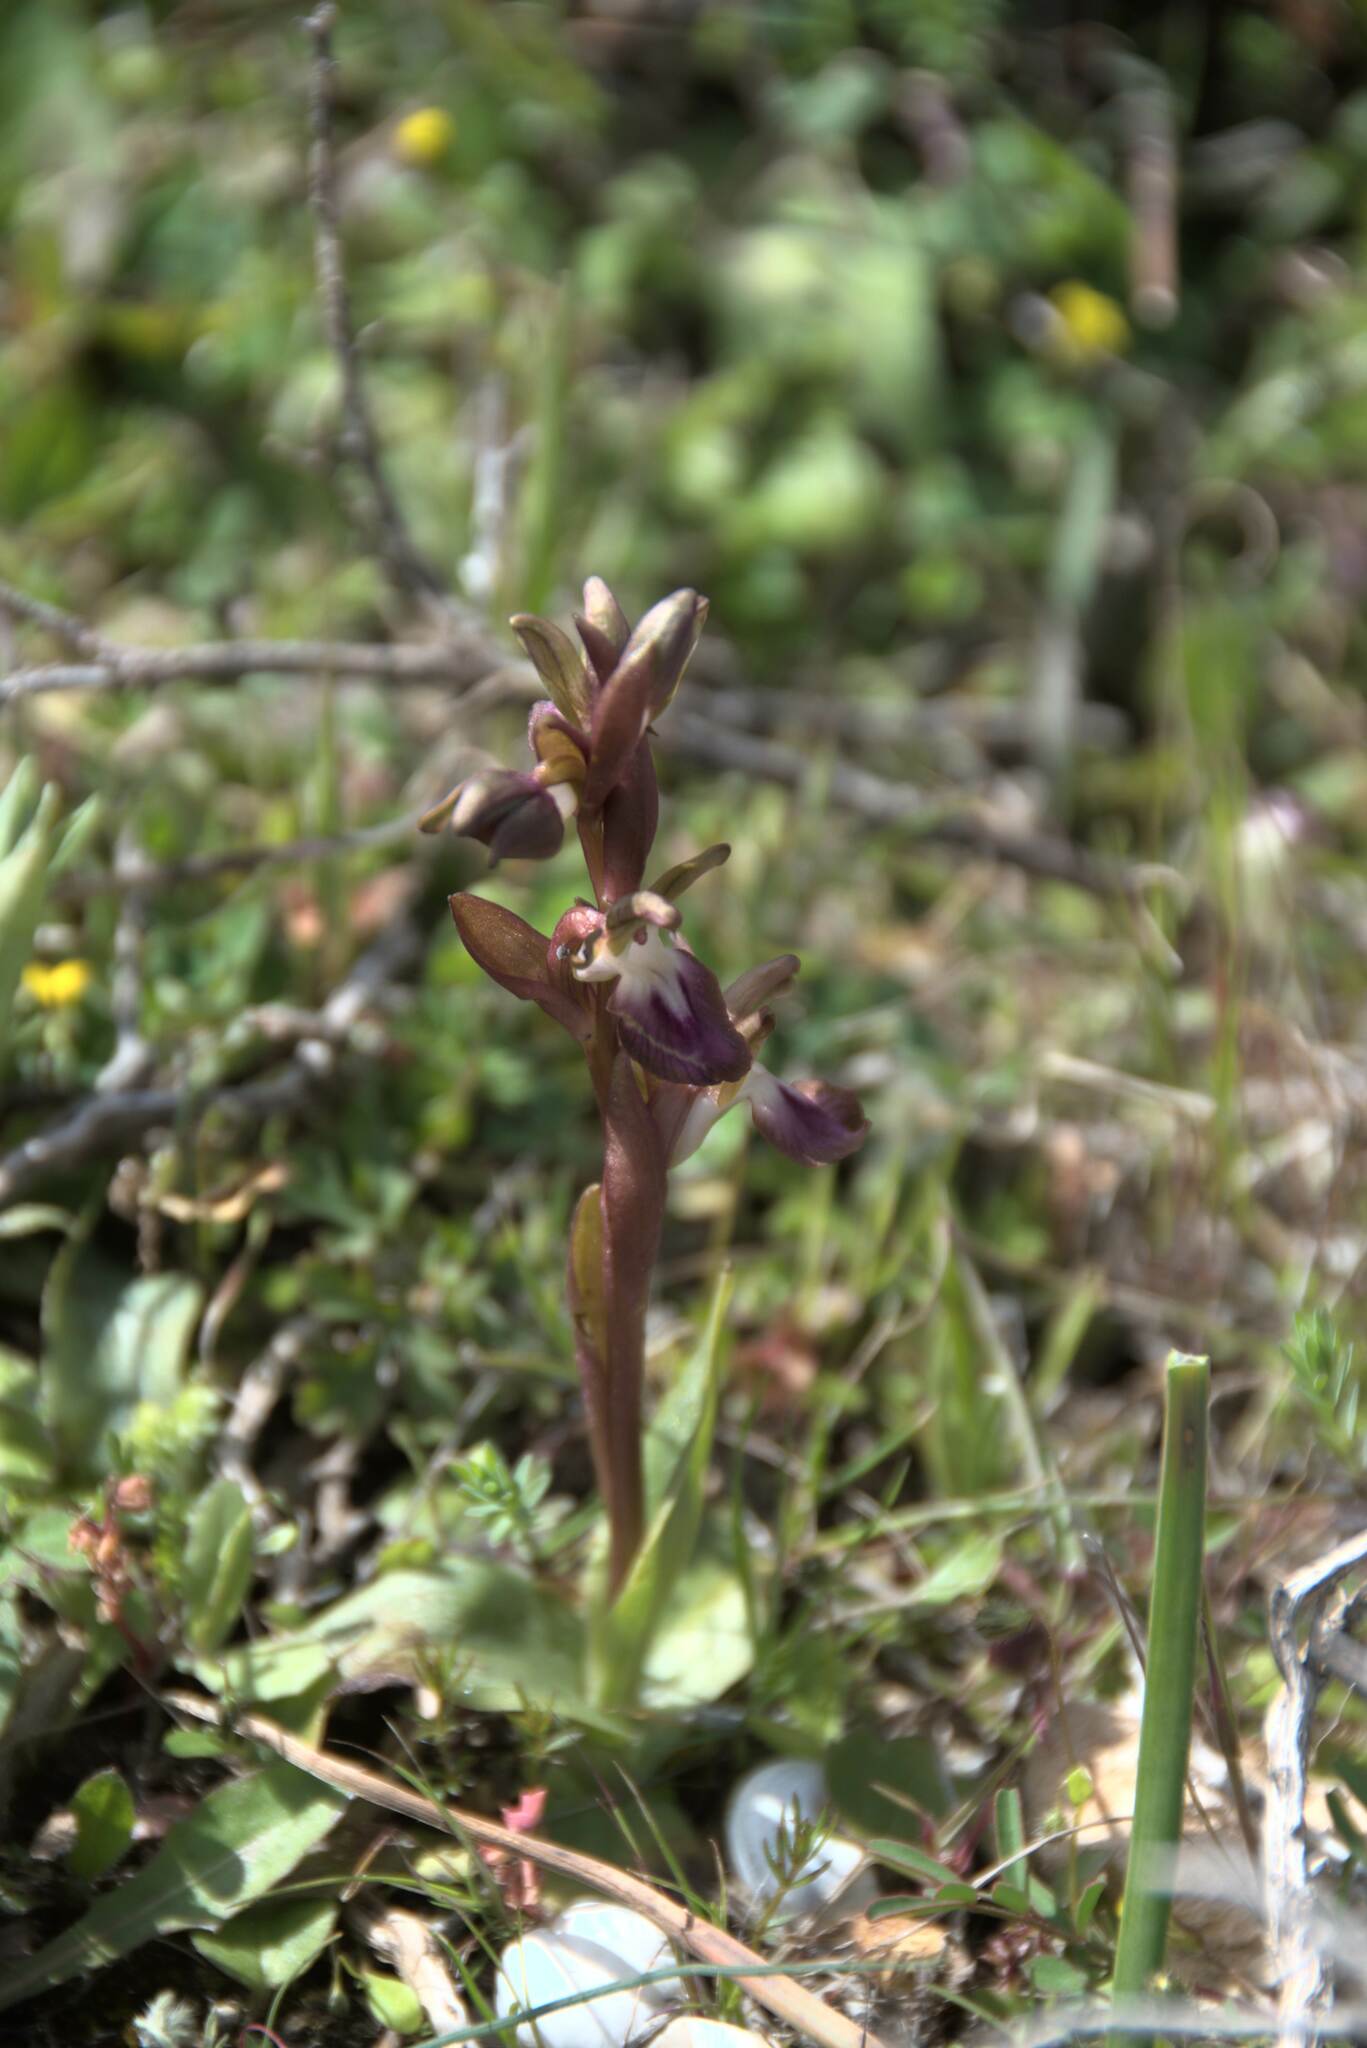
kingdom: Plantae
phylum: Tracheophyta
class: Liliopsida
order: Asparagales
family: Orchidaceae
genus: Anacamptis
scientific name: Anacamptis collina
